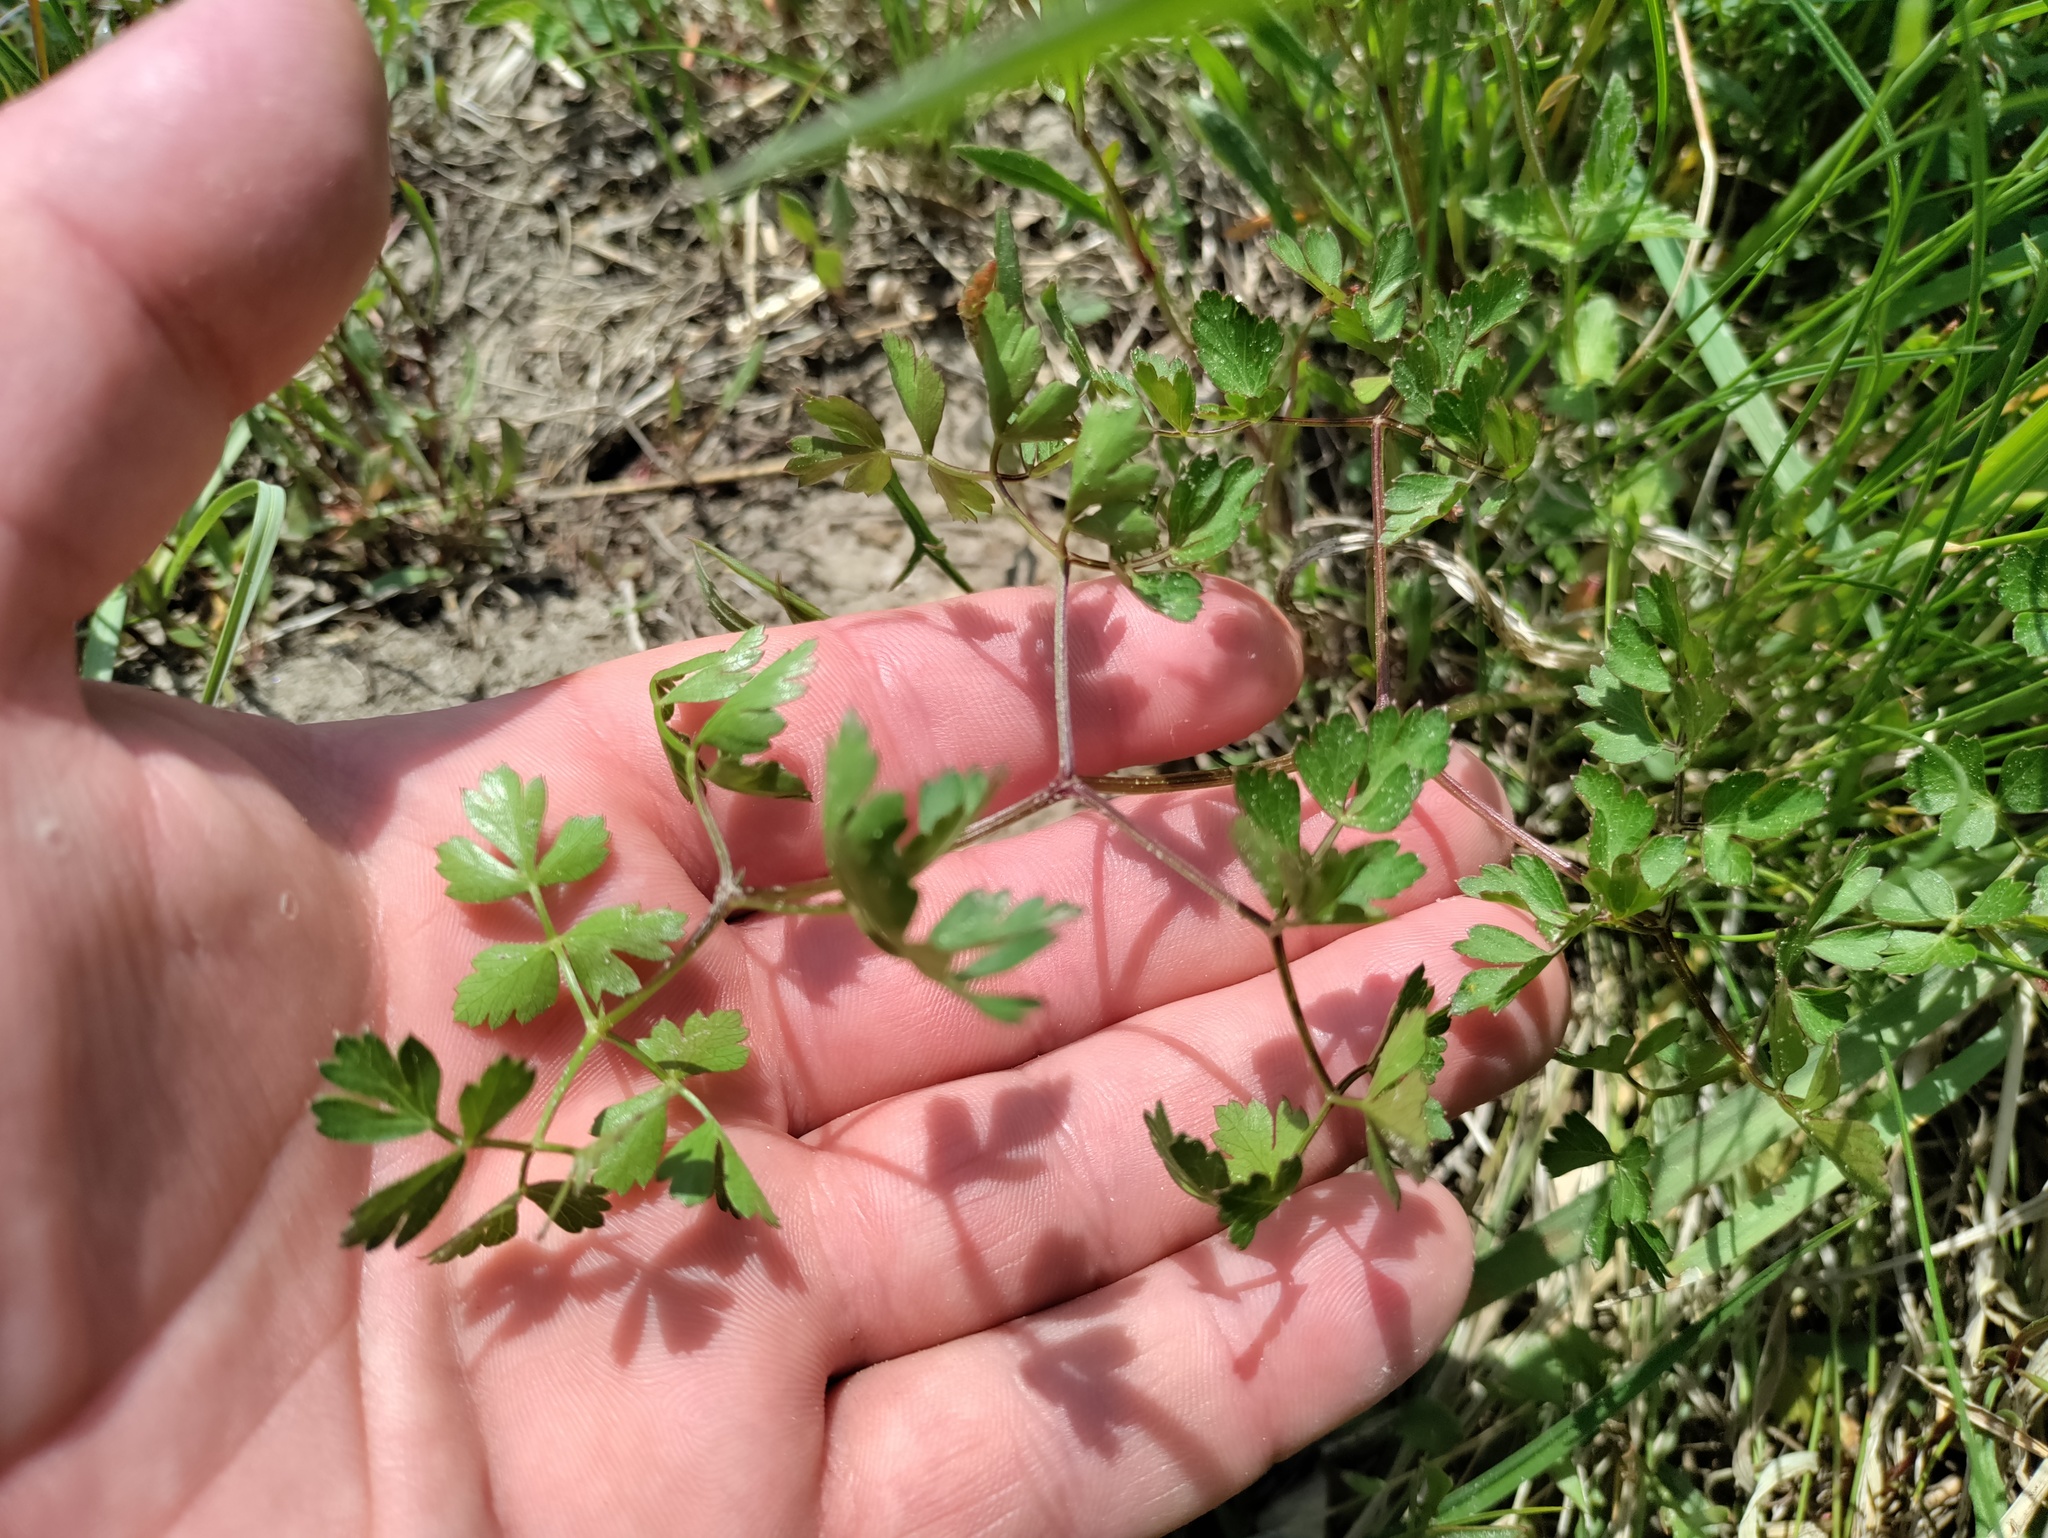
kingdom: Plantae
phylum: Tracheophyta
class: Magnoliopsida
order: Apiales
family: Apiaceae
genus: Oreoselinum
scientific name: Oreoselinum nigrum
